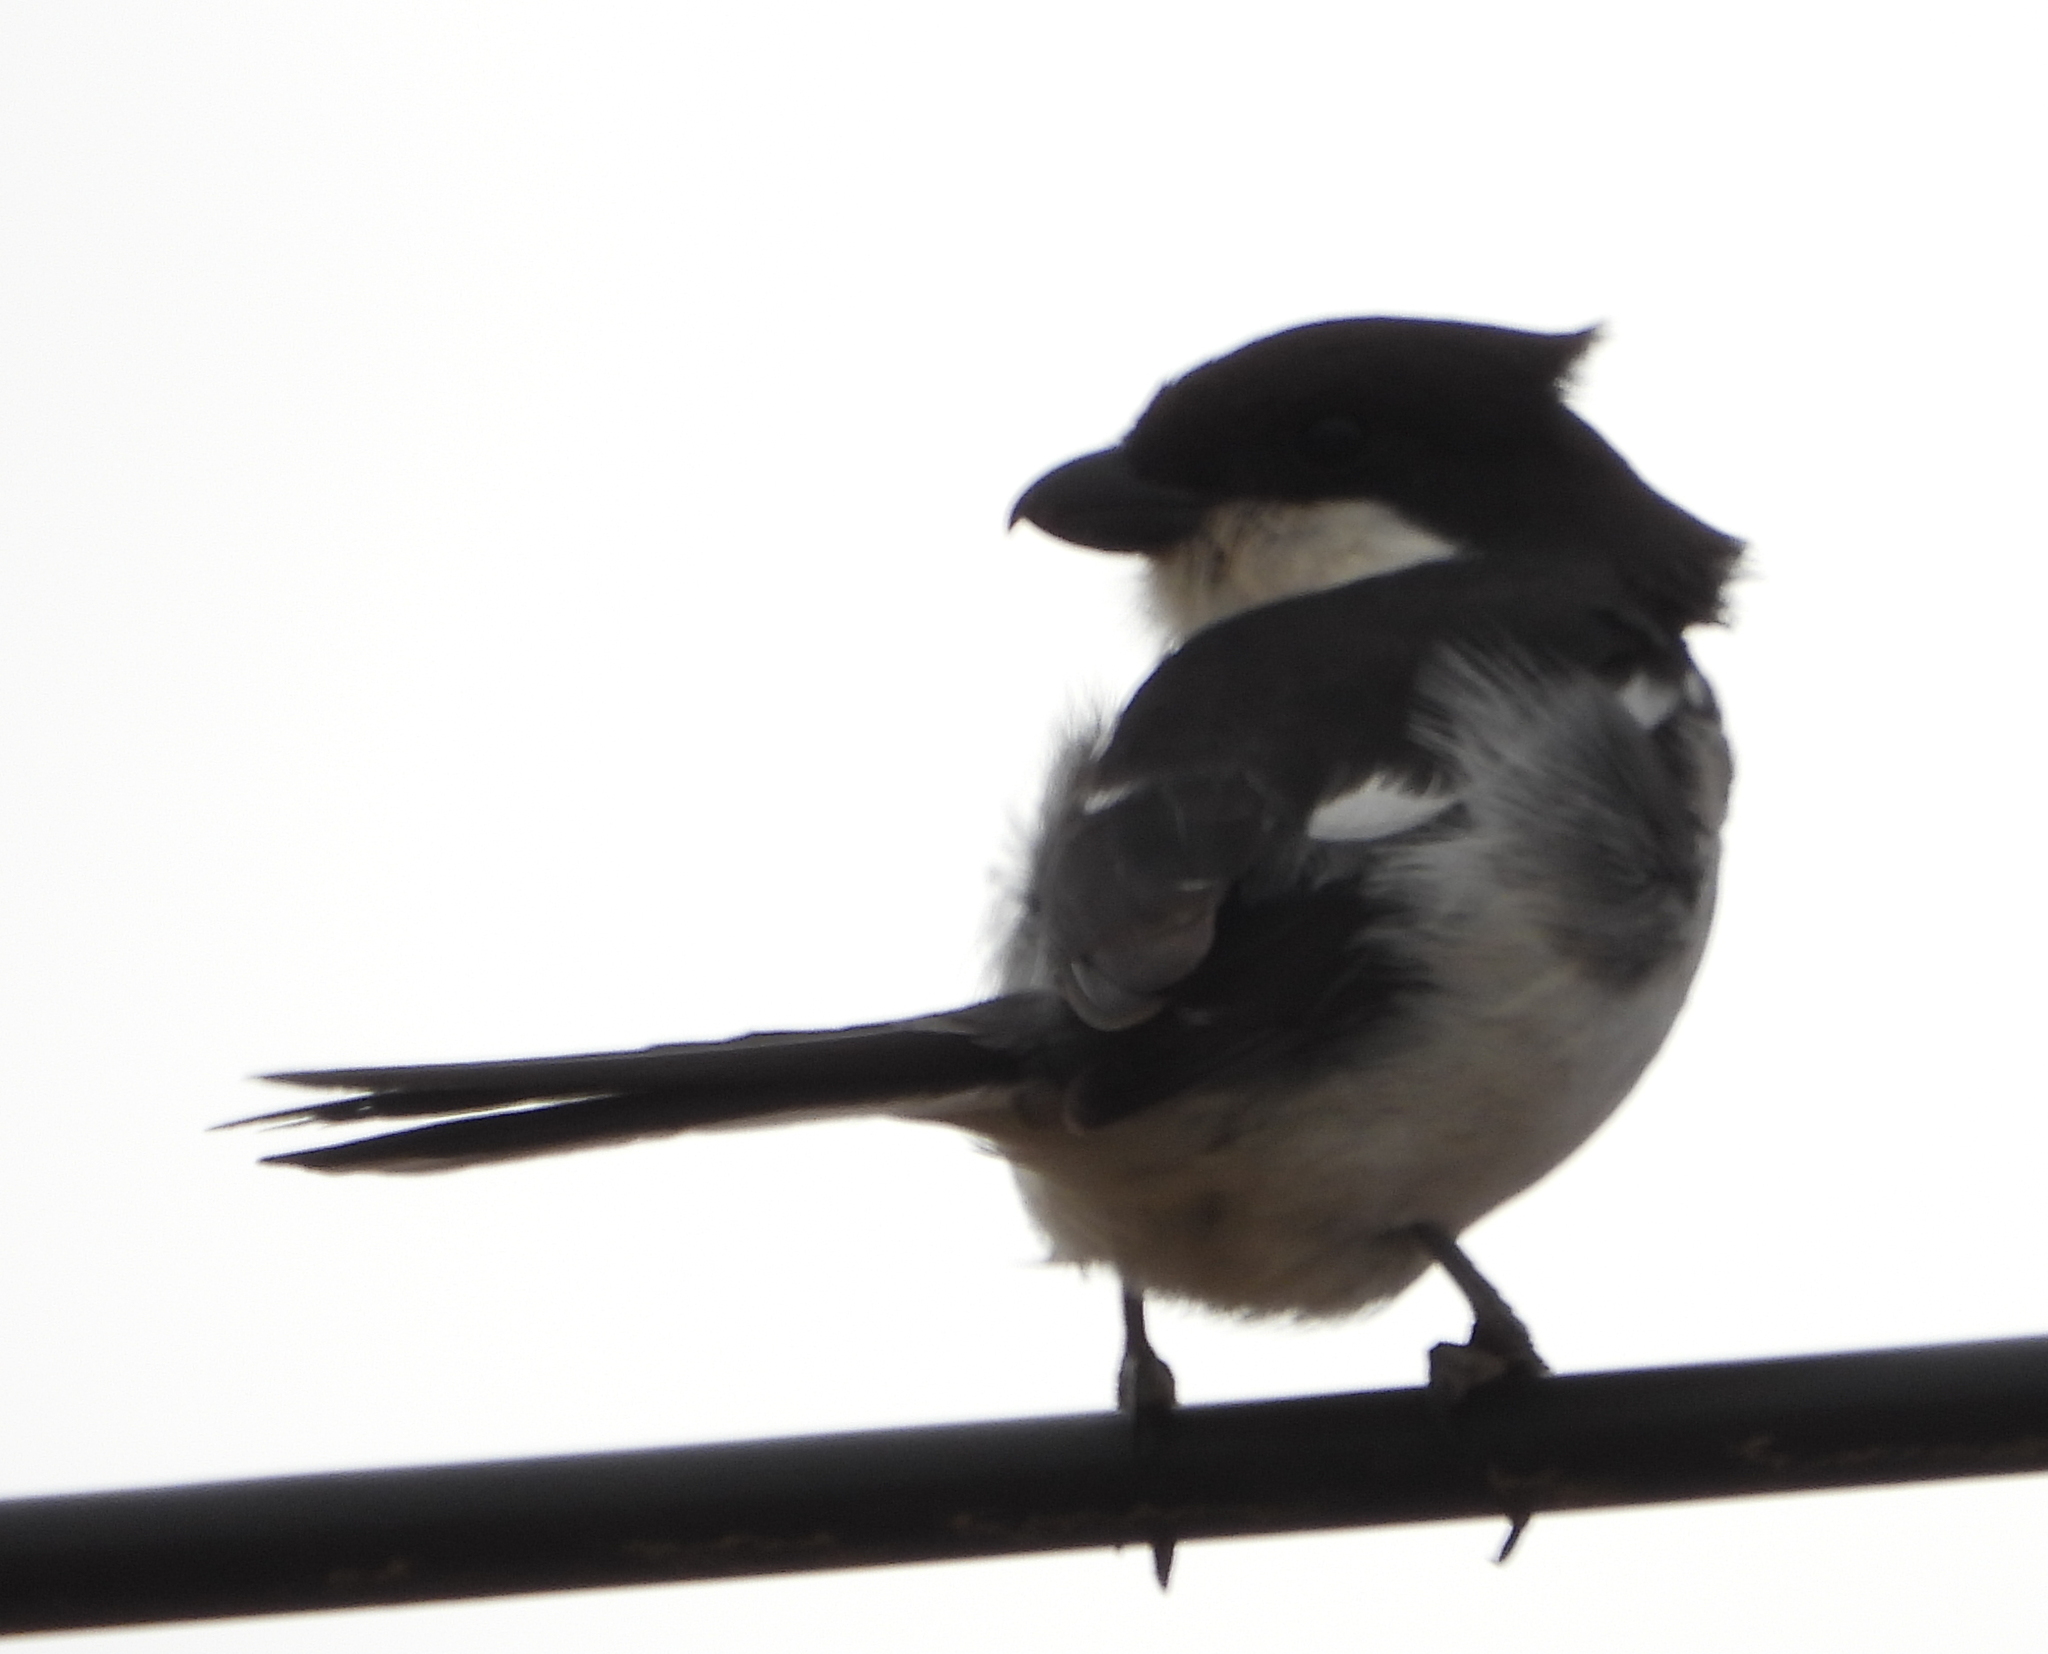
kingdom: Animalia
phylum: Chordata
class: Aves
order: Passeriformes
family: Laniidae
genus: Lanius
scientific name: Lanius collaris
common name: Southern fiscal
